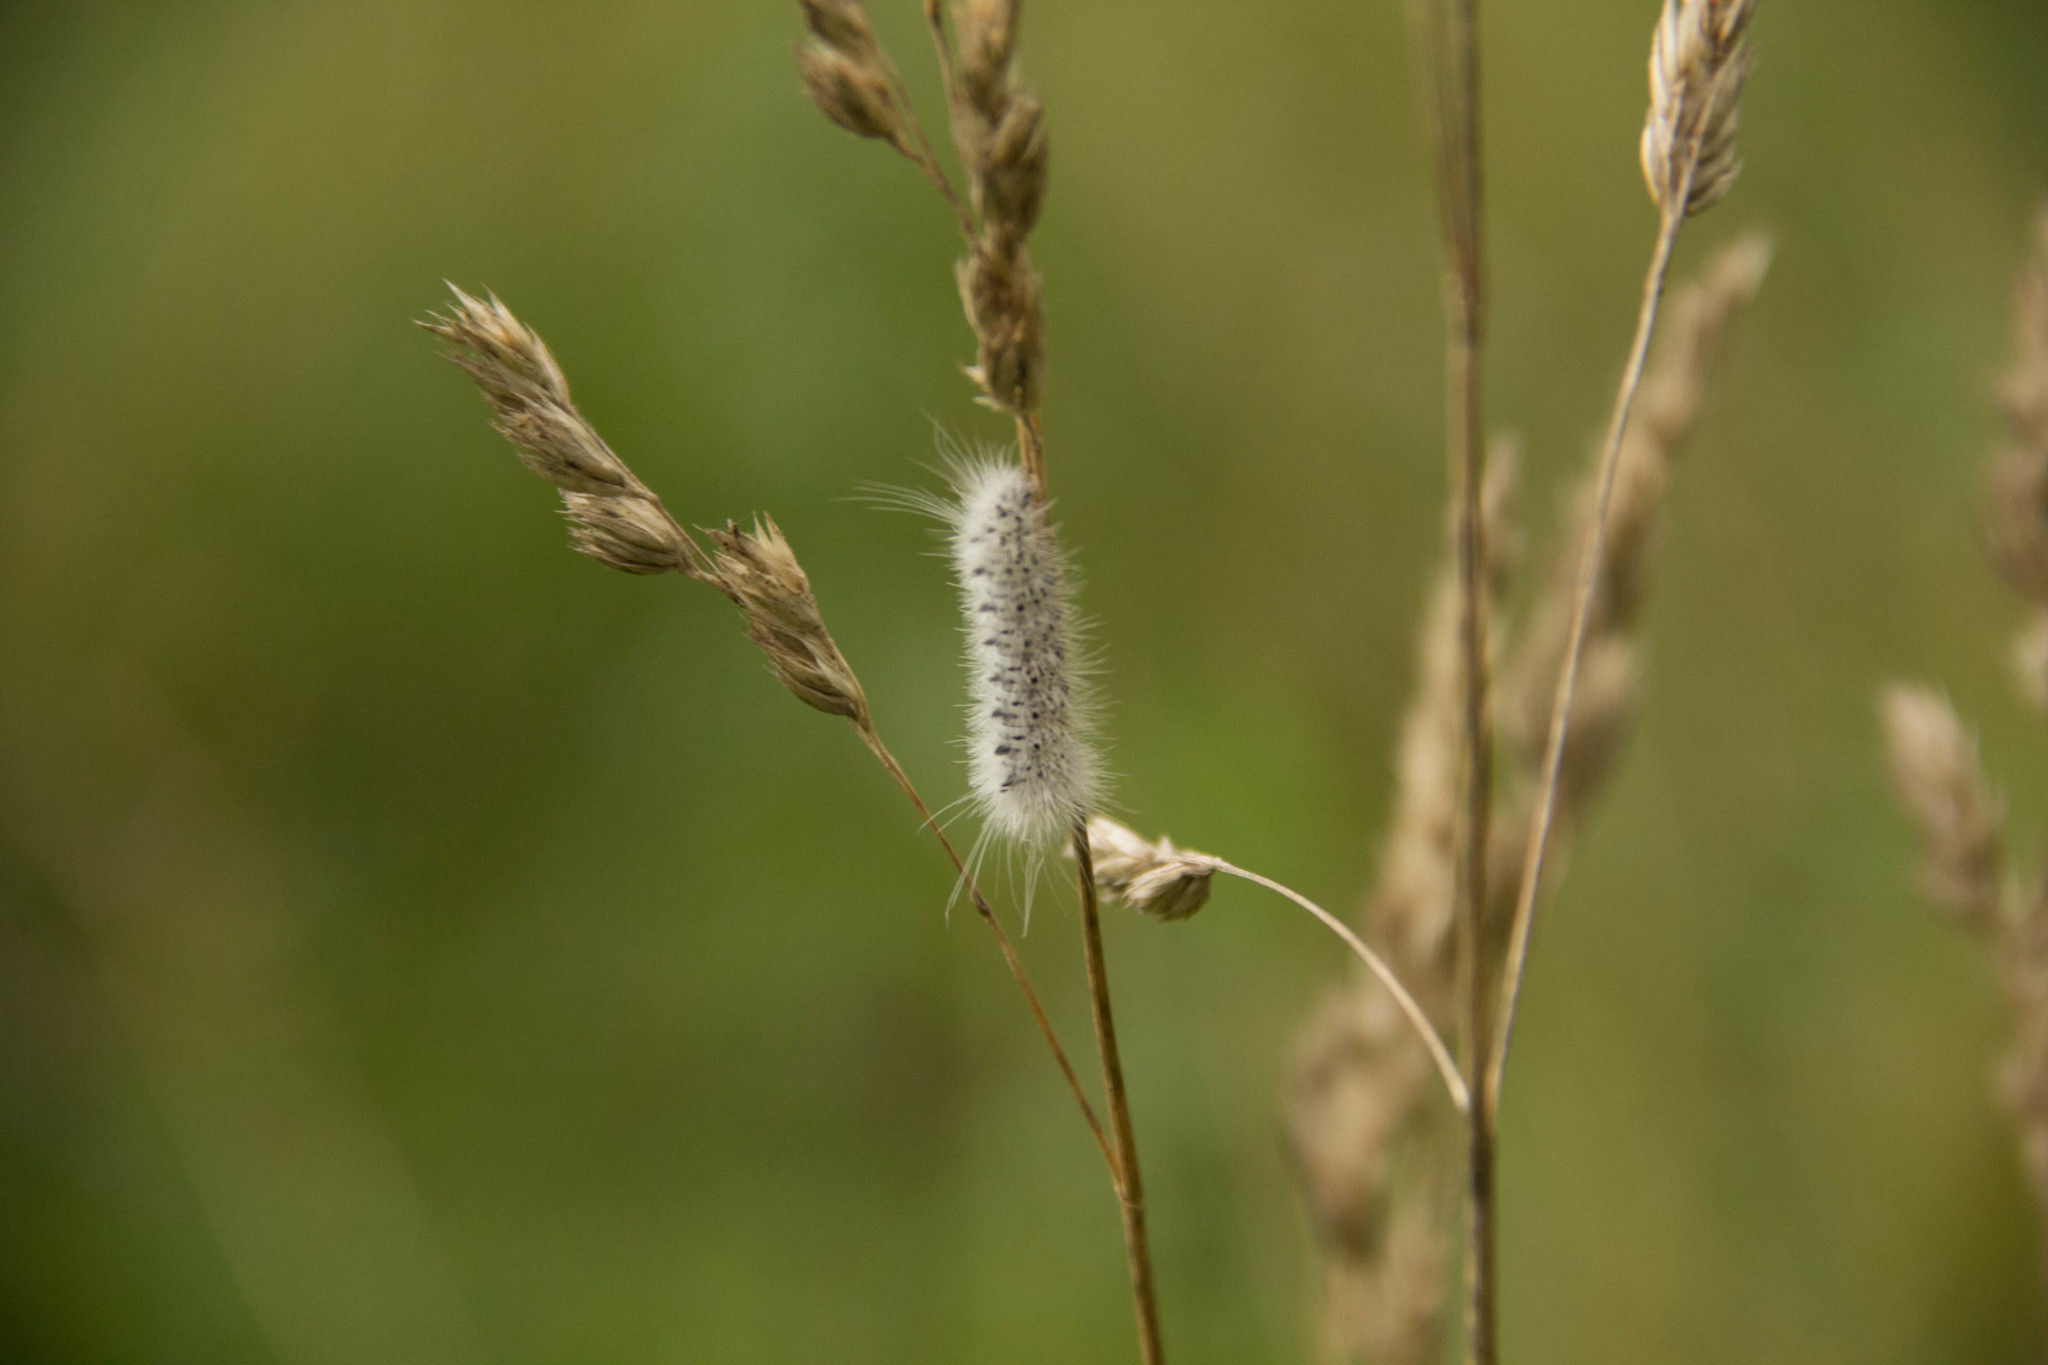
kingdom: Animalia
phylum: Arthropoda
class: Insecta
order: Lepidoptera
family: Erebidae
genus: Lophocampa
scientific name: Lophocampa caryae
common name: Hickory tussock moth
